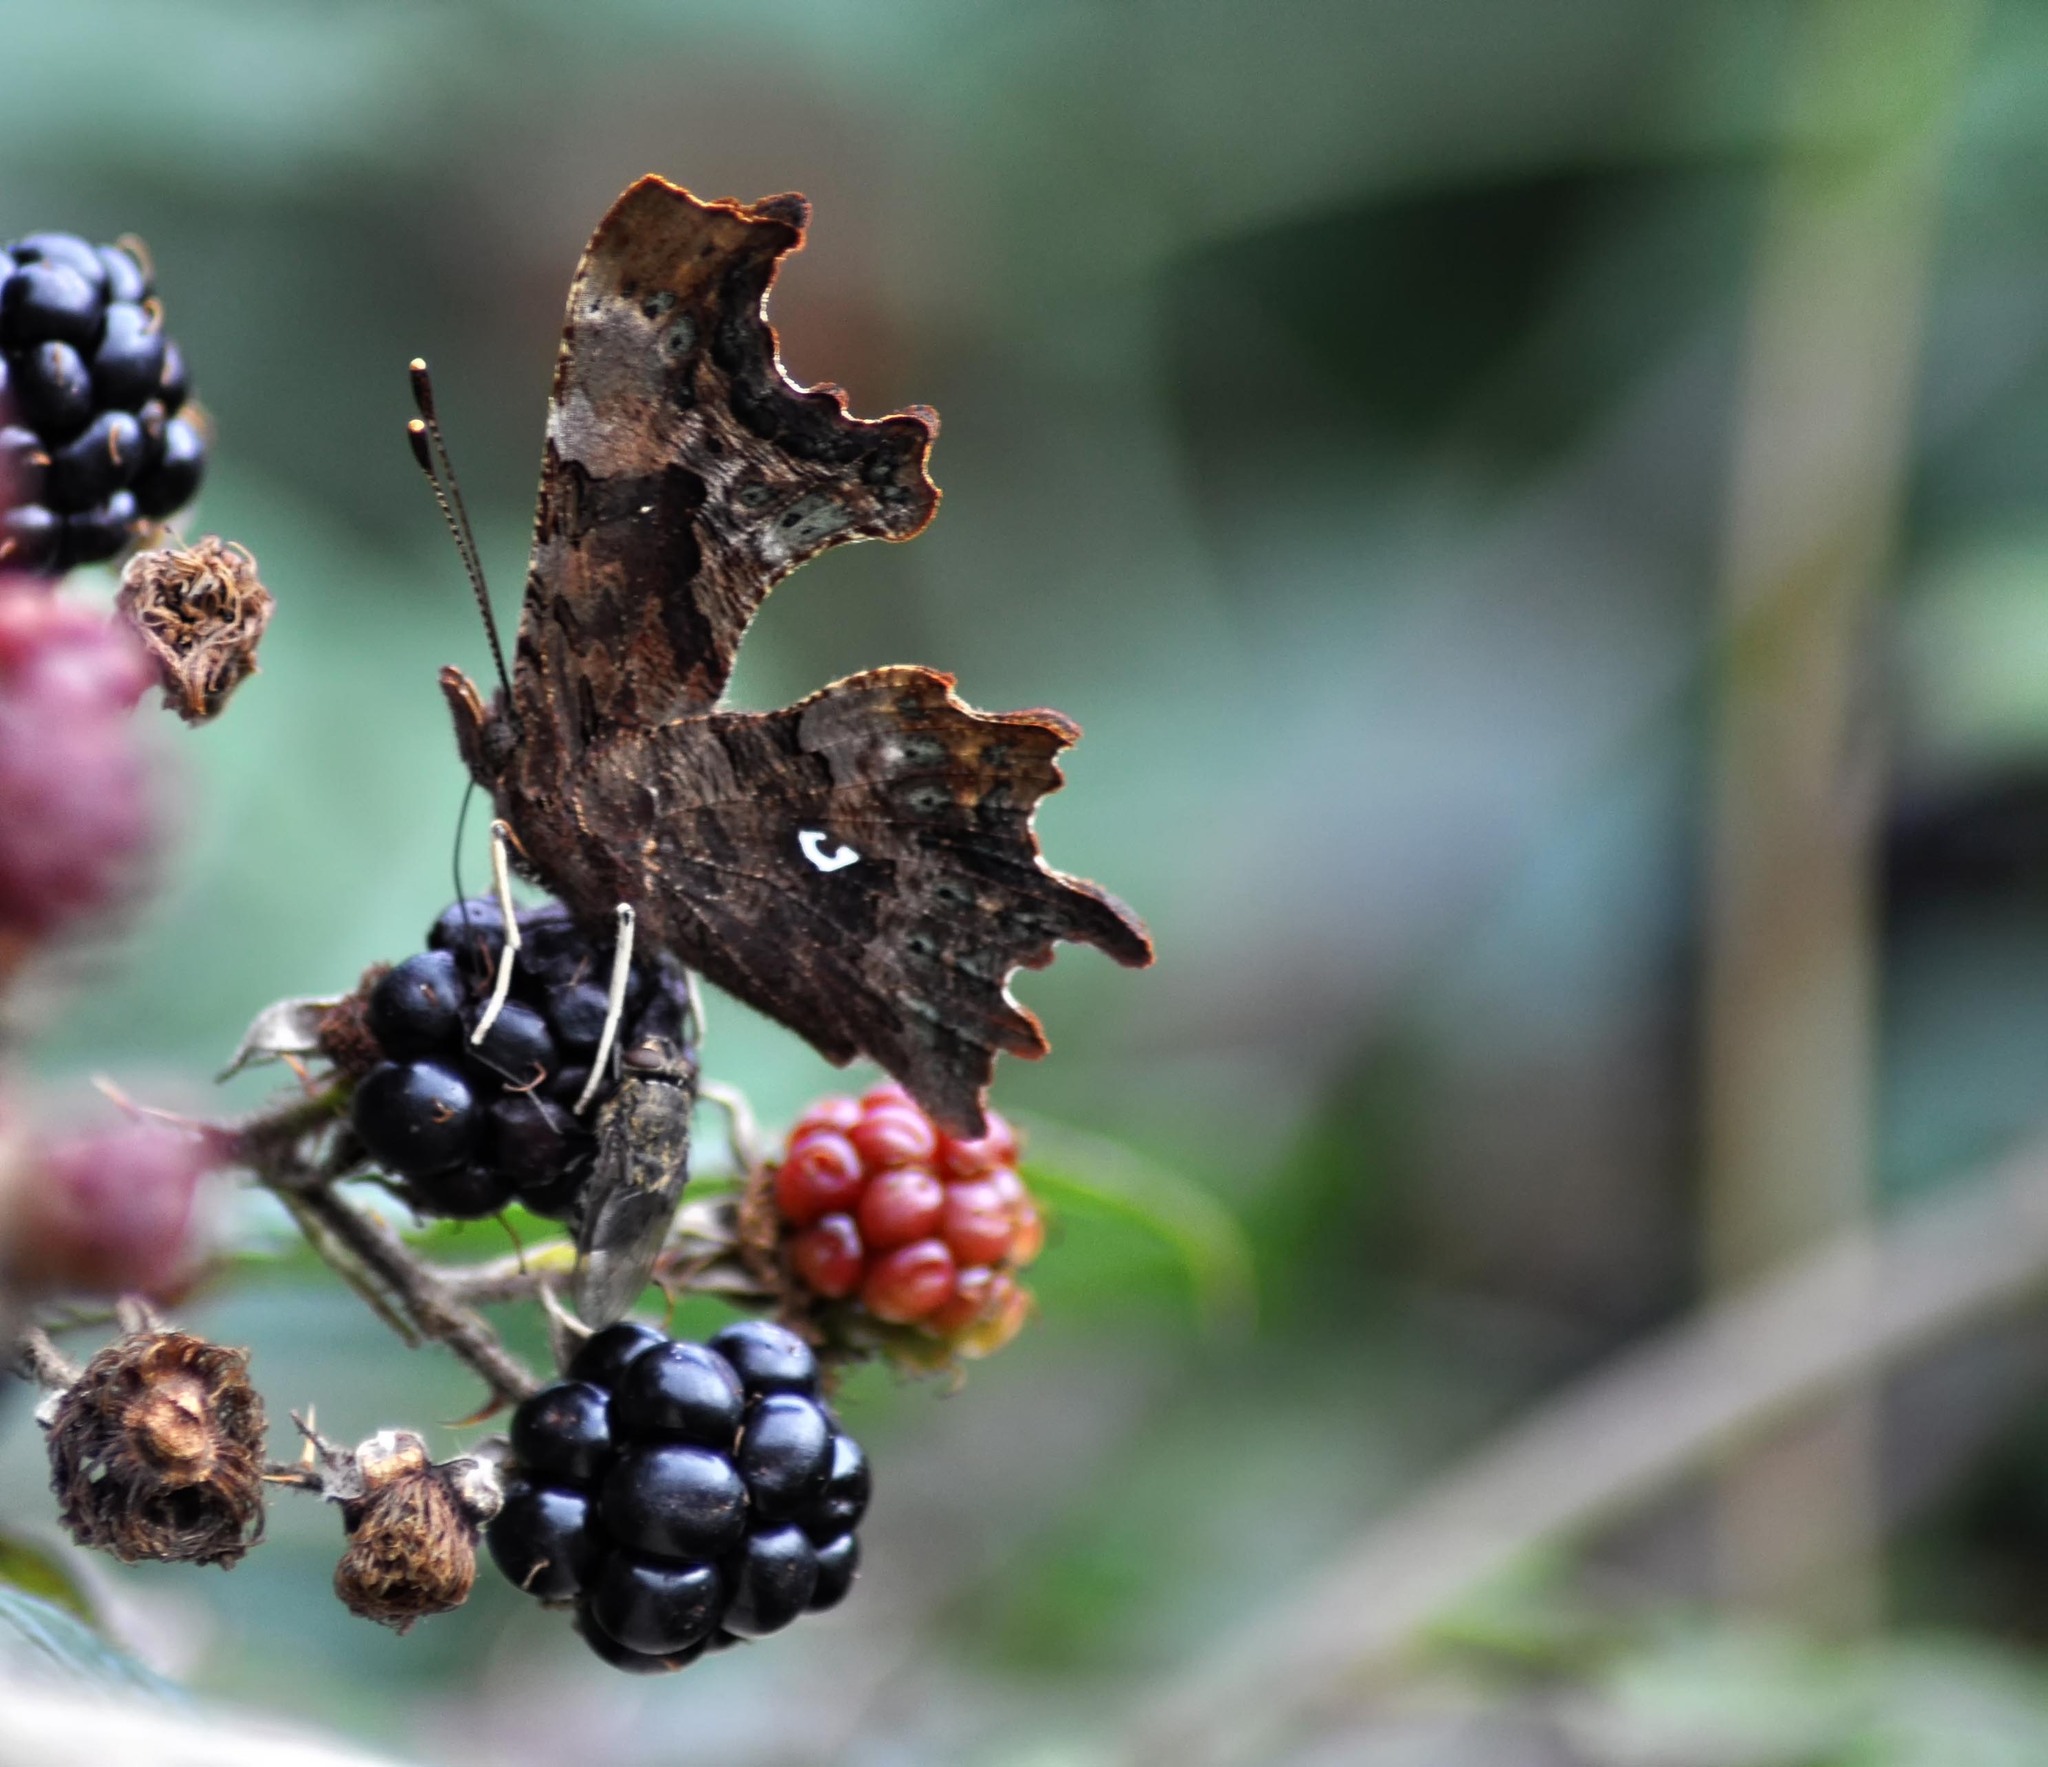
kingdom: Animalia
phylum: Arthropoda
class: Insecta
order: Lepidoptera
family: Nymphalidae
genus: Polygonia
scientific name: Polygonia c-album
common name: Comma
